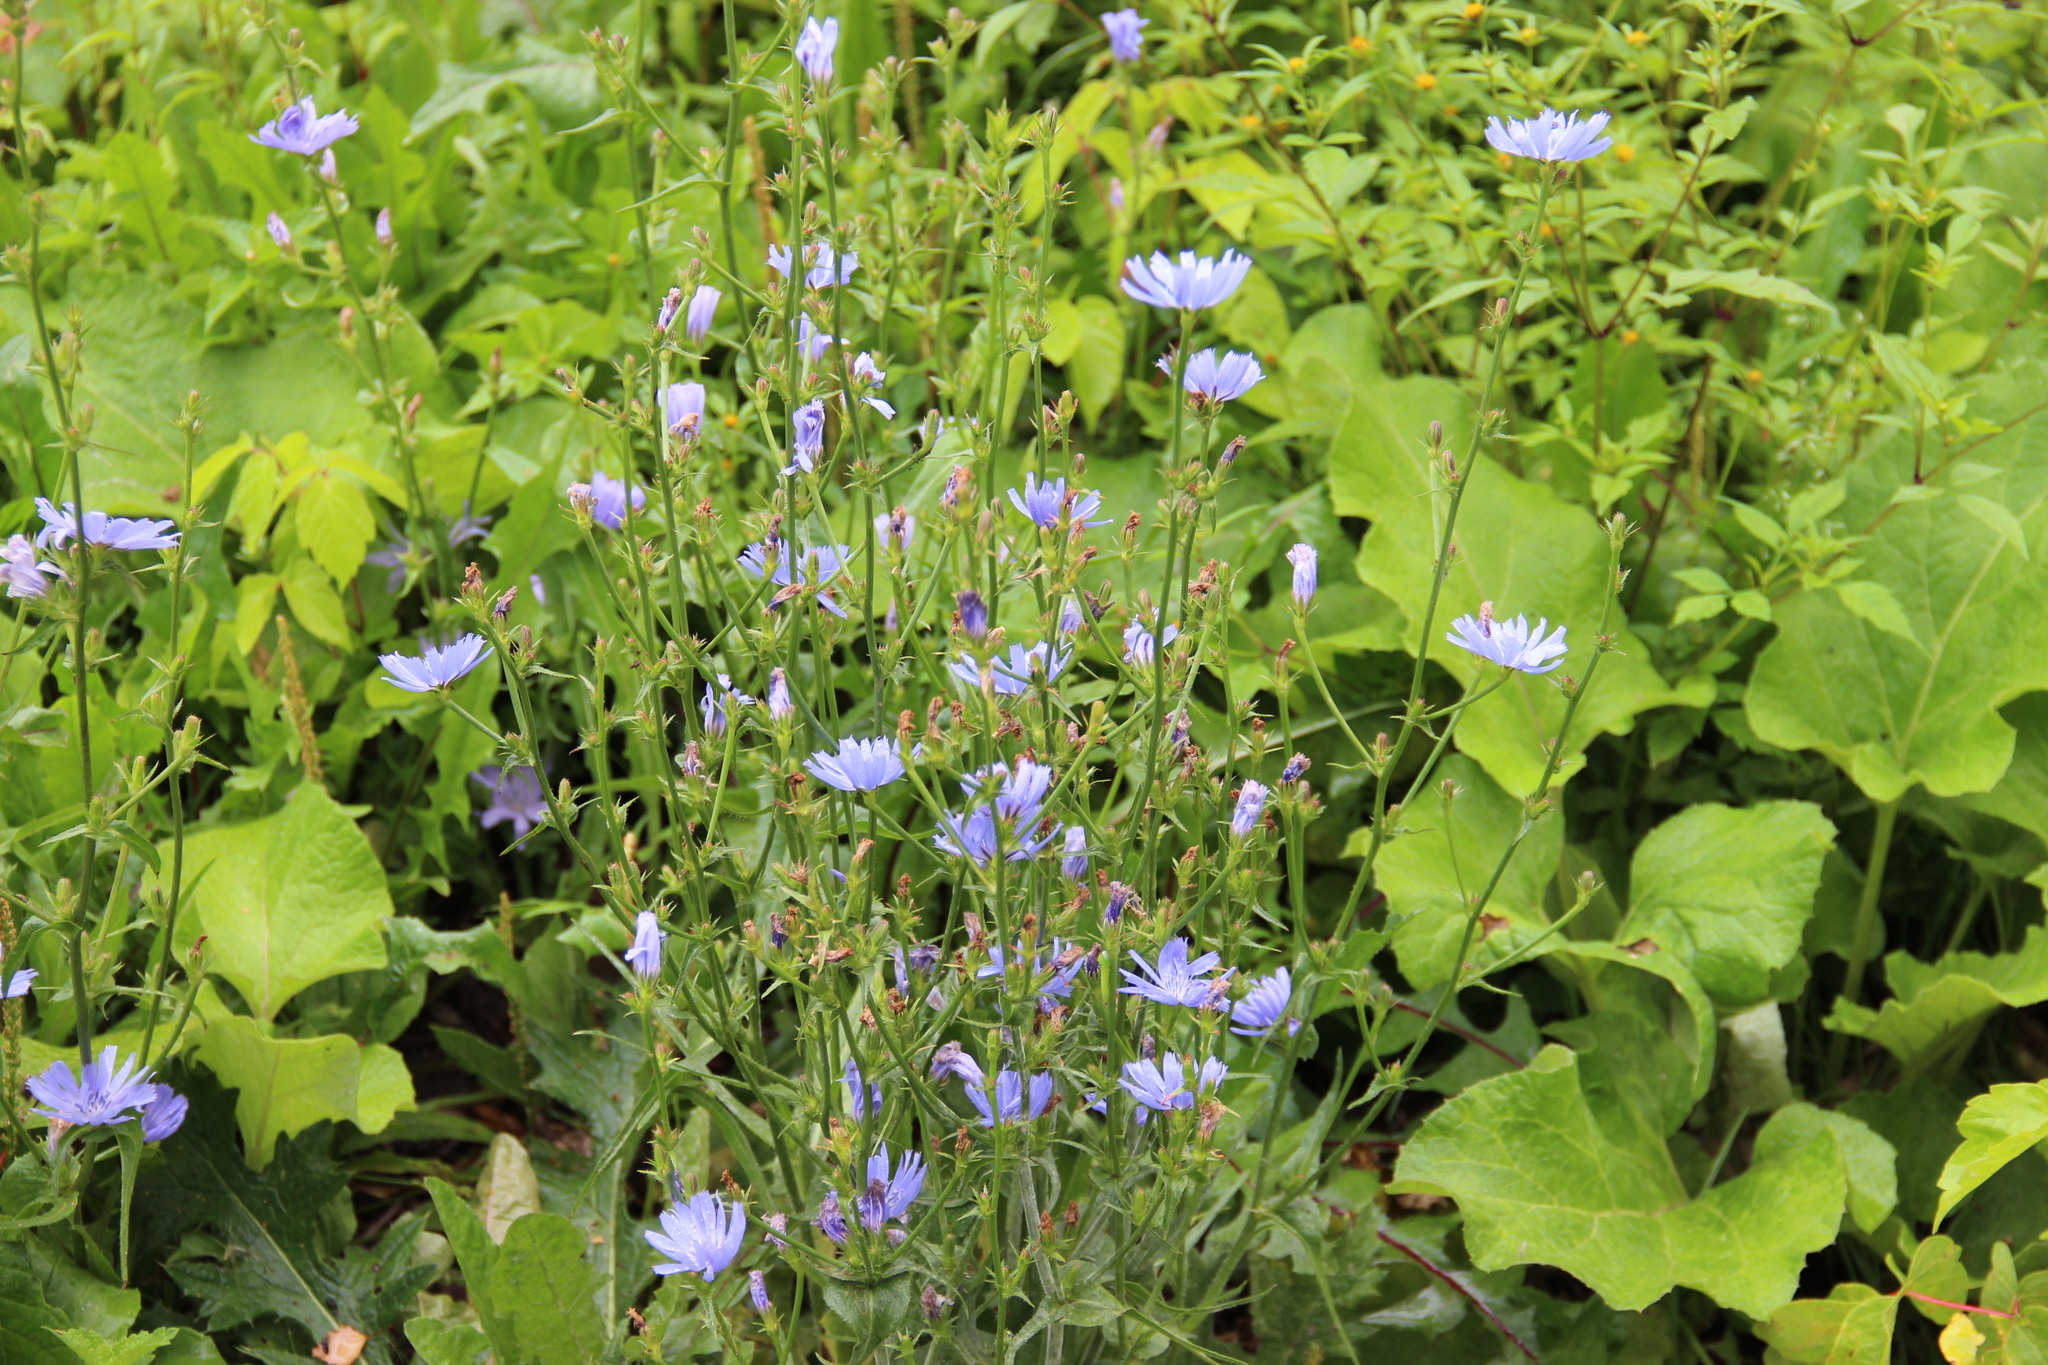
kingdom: Plantae
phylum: Tracheophyta
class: Magnoliopsida
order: Asterales
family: Asteraceae
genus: Cichorium
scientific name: Cichorium intybus
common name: Chicory
